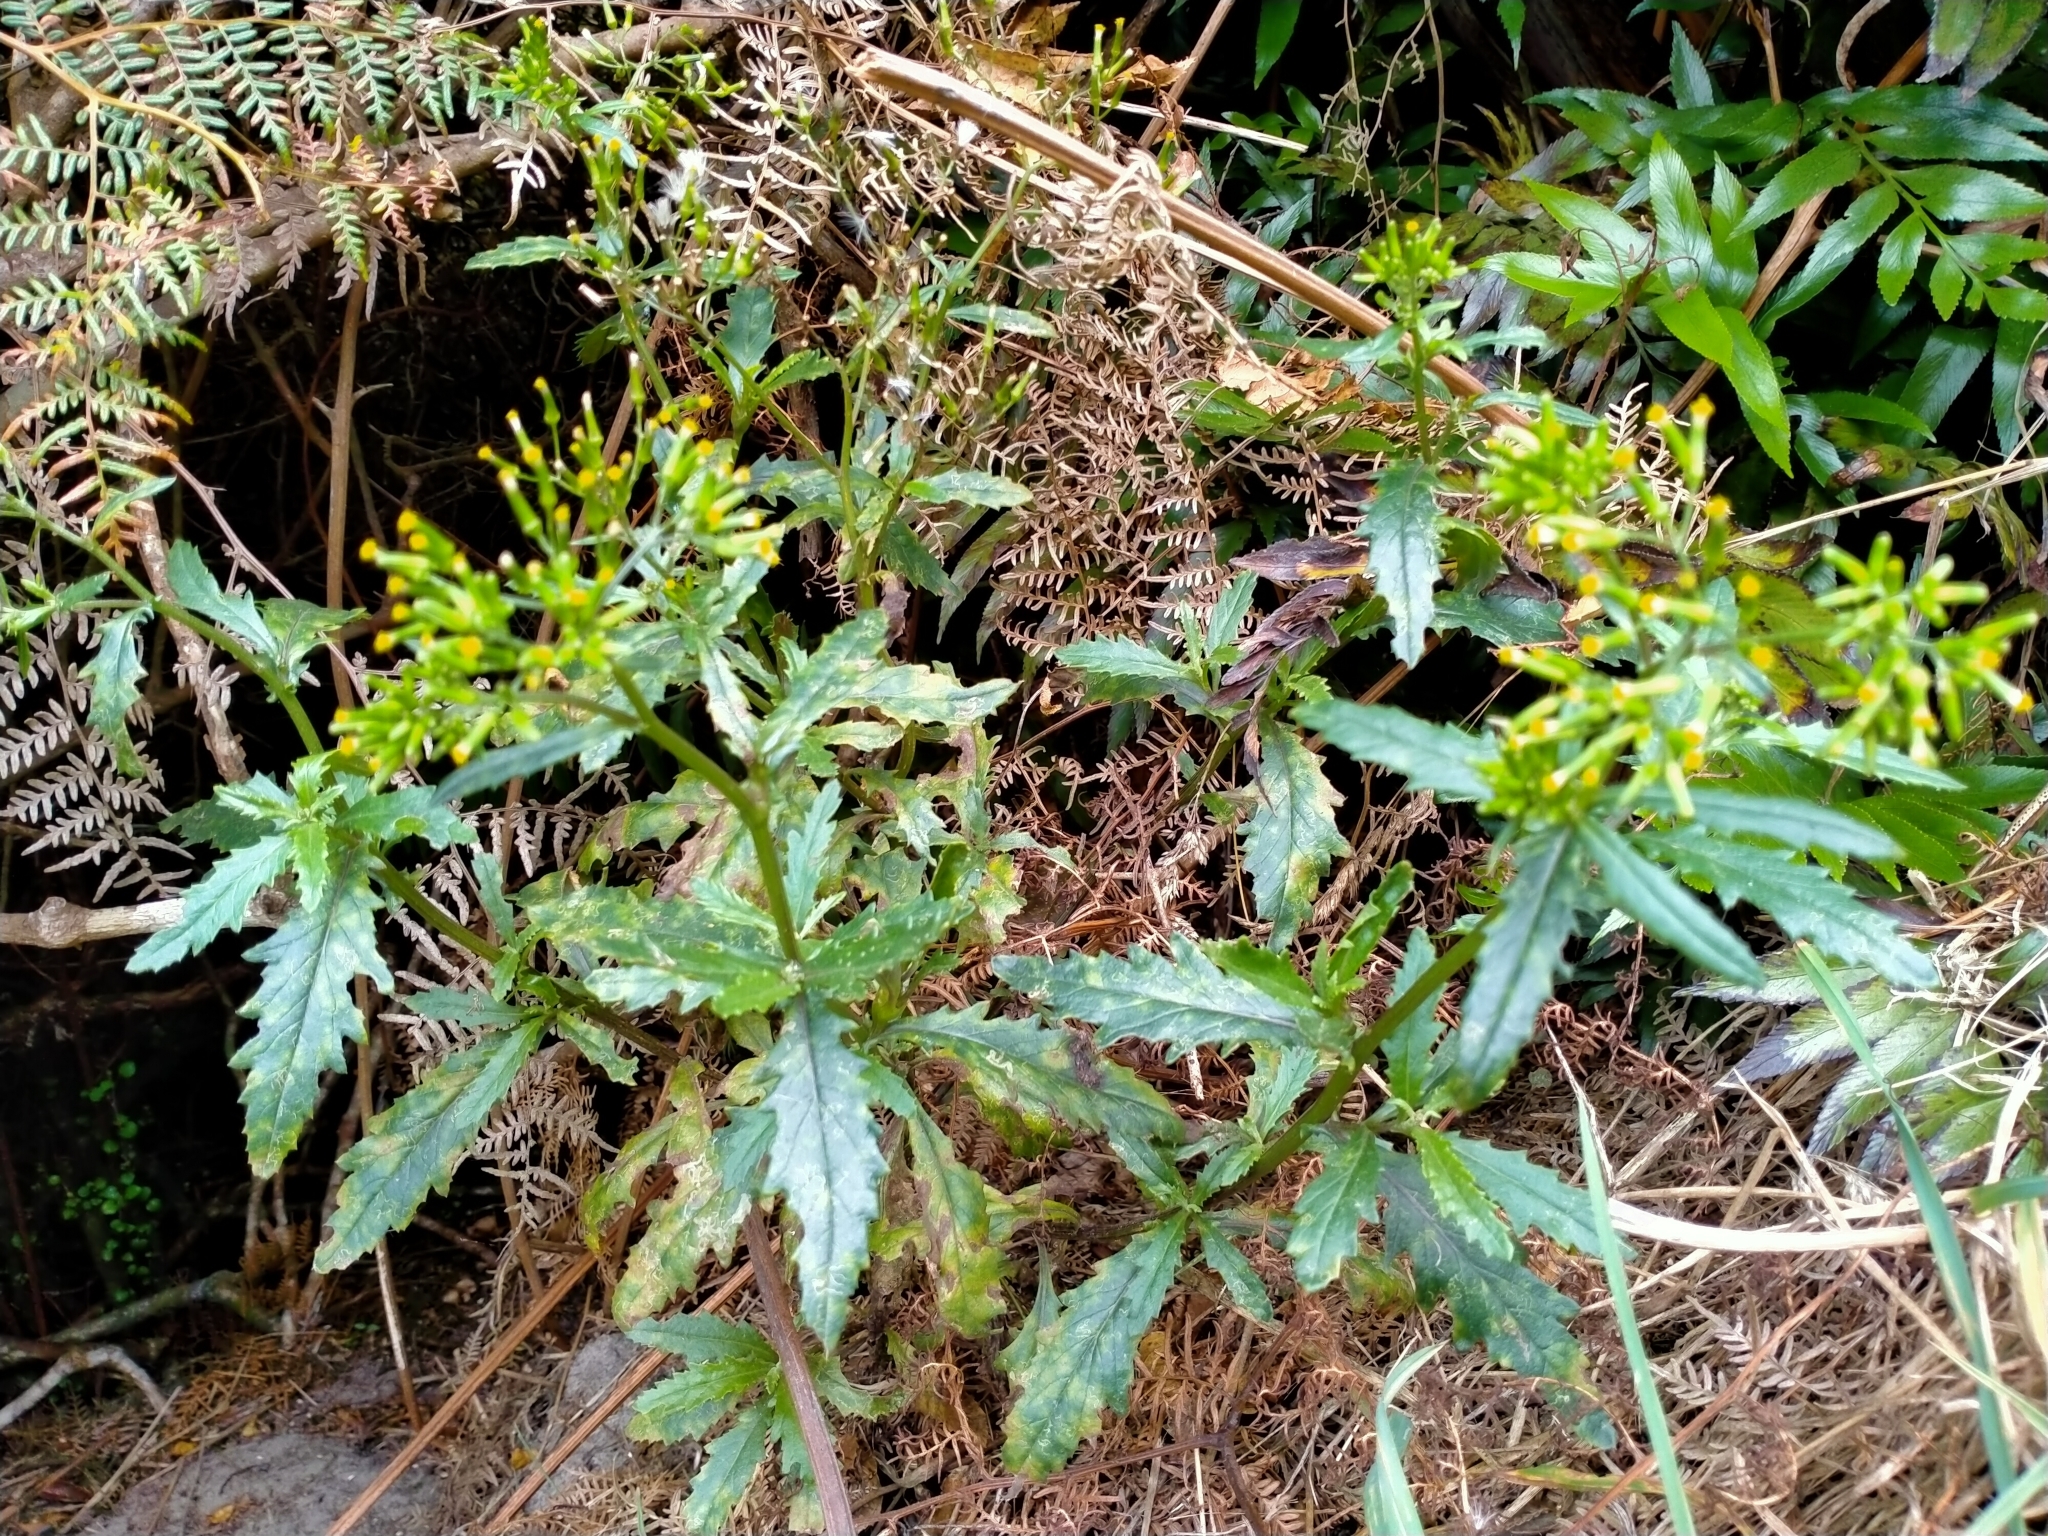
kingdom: Plantae
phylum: Tracheophyta
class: Magnoliopsida
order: Asterales
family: Asteraceae
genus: Senecio
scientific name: Senecio biserratus
